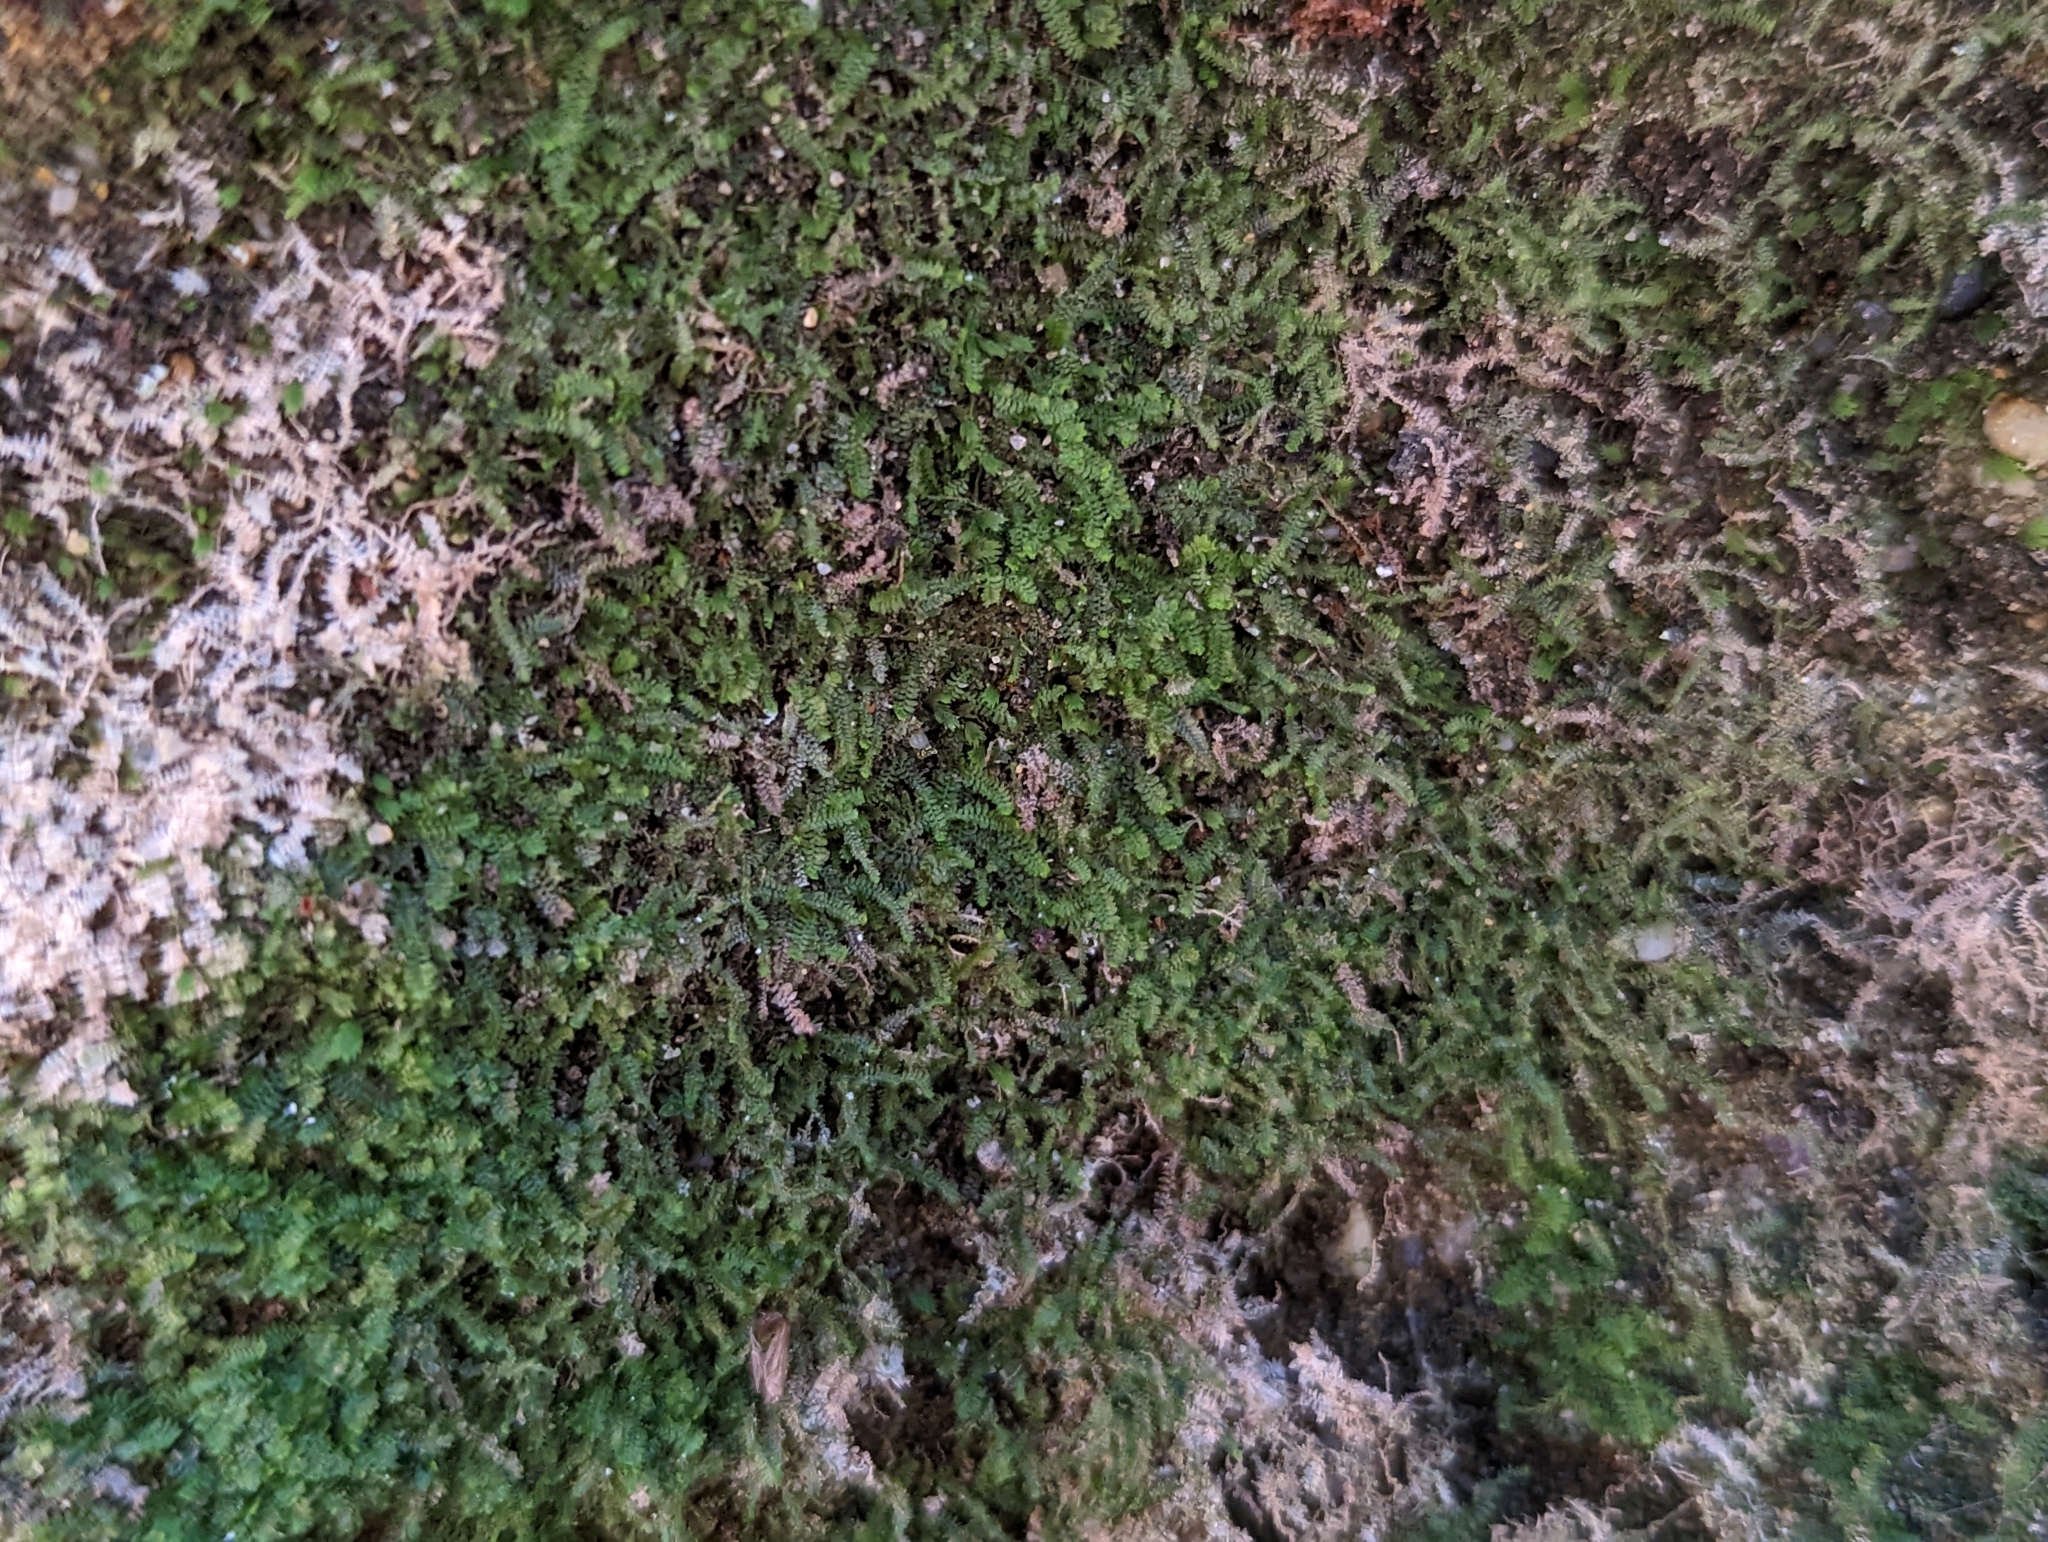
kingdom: Plantae
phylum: Marchantiophyta
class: Jungermanniopsida
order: Jungermanniales
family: Scapaniaceae
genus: Diplophyllum
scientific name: Diplophyllum apiculatum
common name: Sharp-pointed earwort
